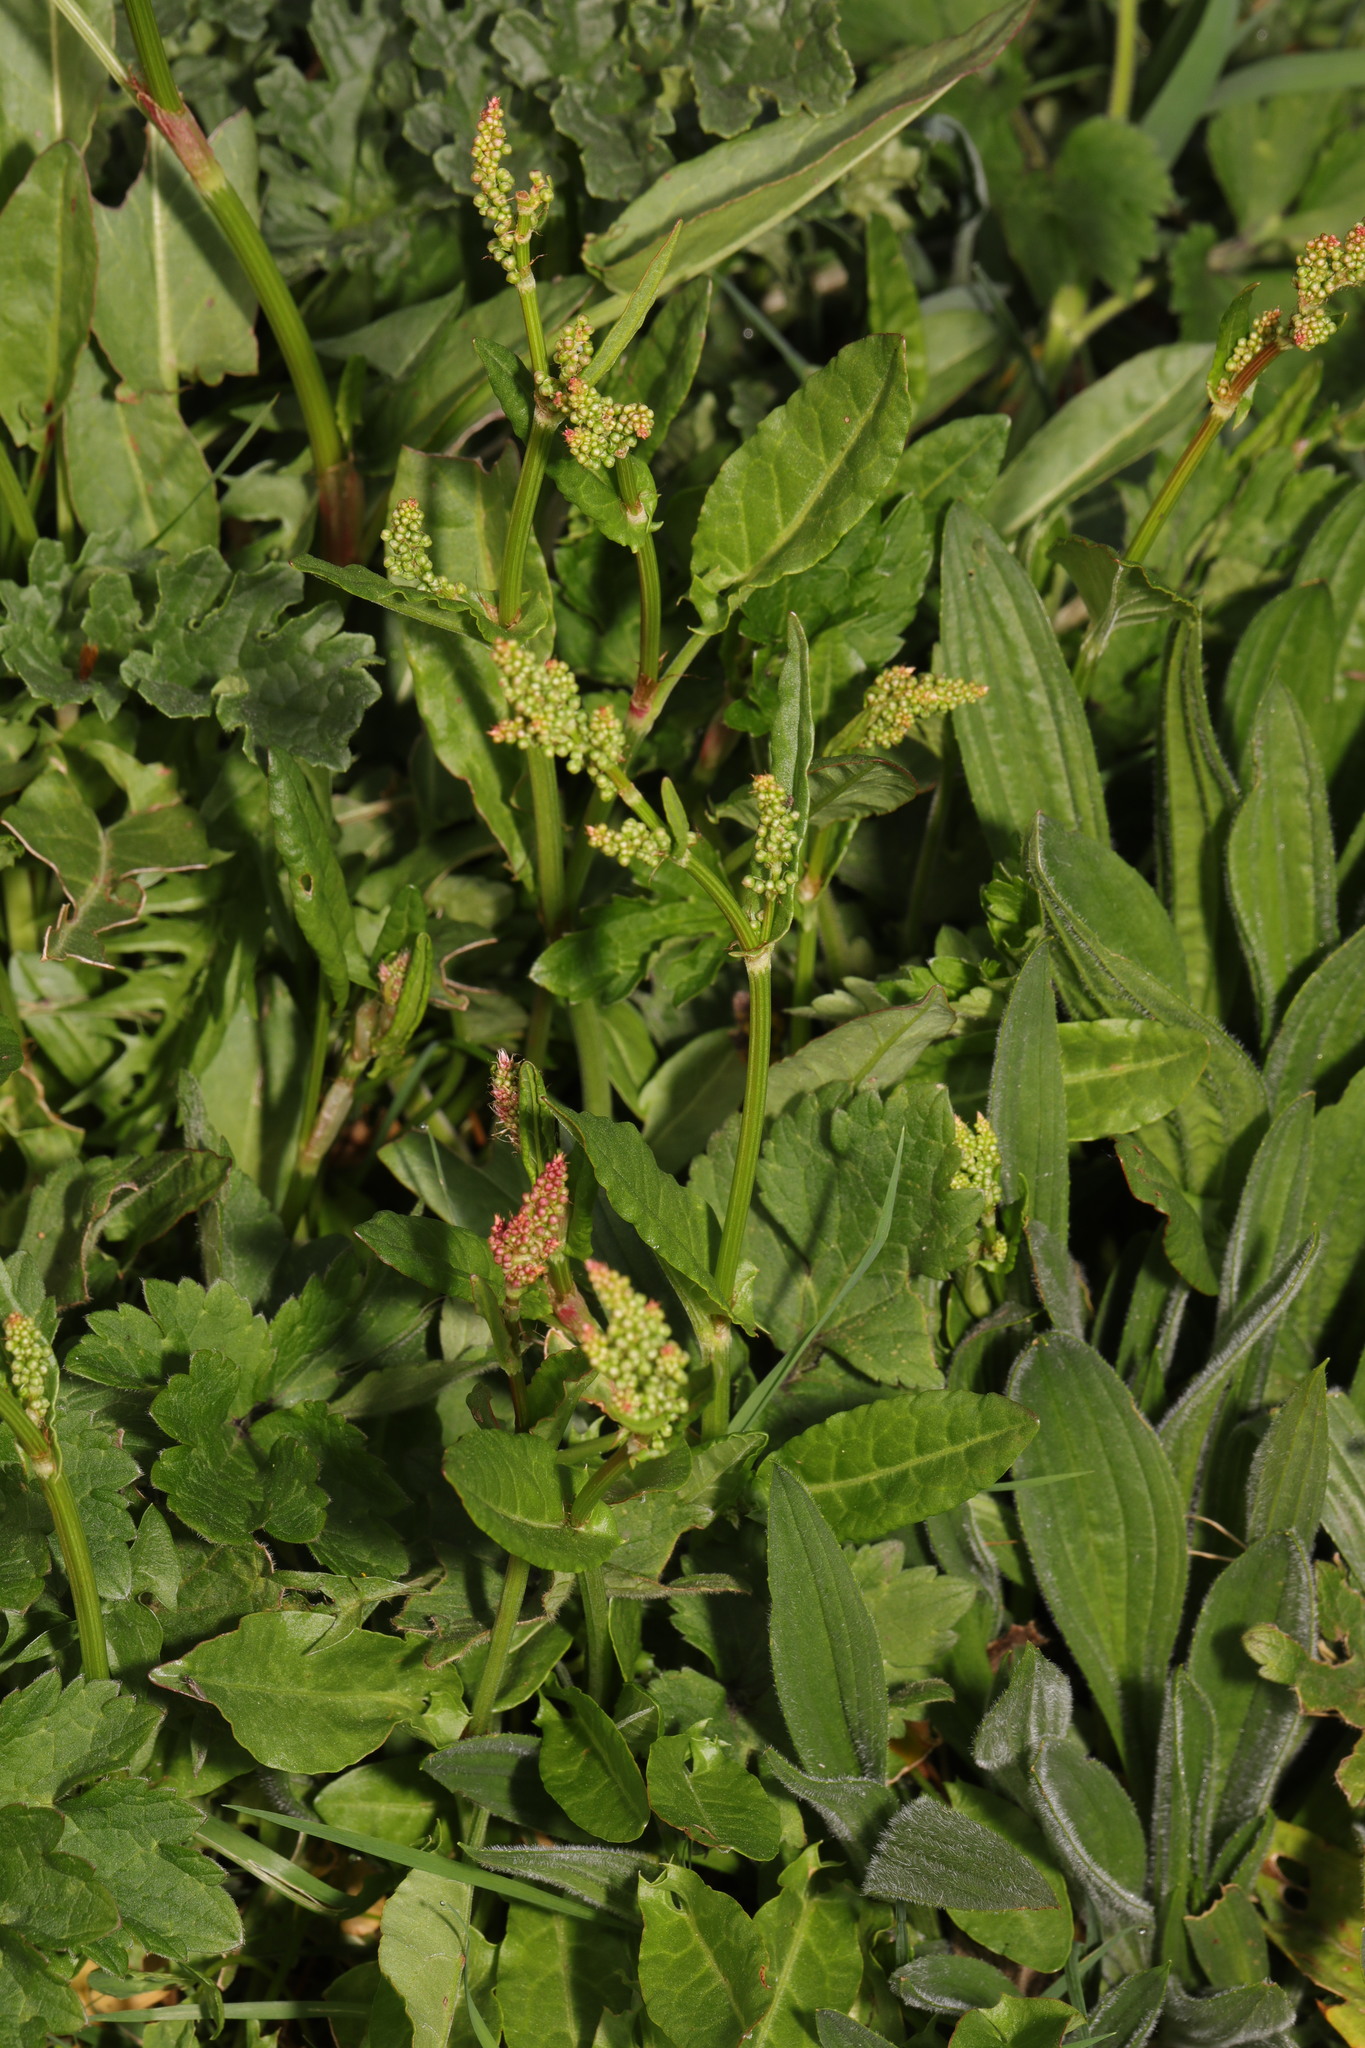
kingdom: Plantae
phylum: Tracheophyta
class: Magnoliopsida
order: Caryophyllales
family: Polygonaceae
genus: Rumex
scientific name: Rumex acetosa
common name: Garden sorrel
